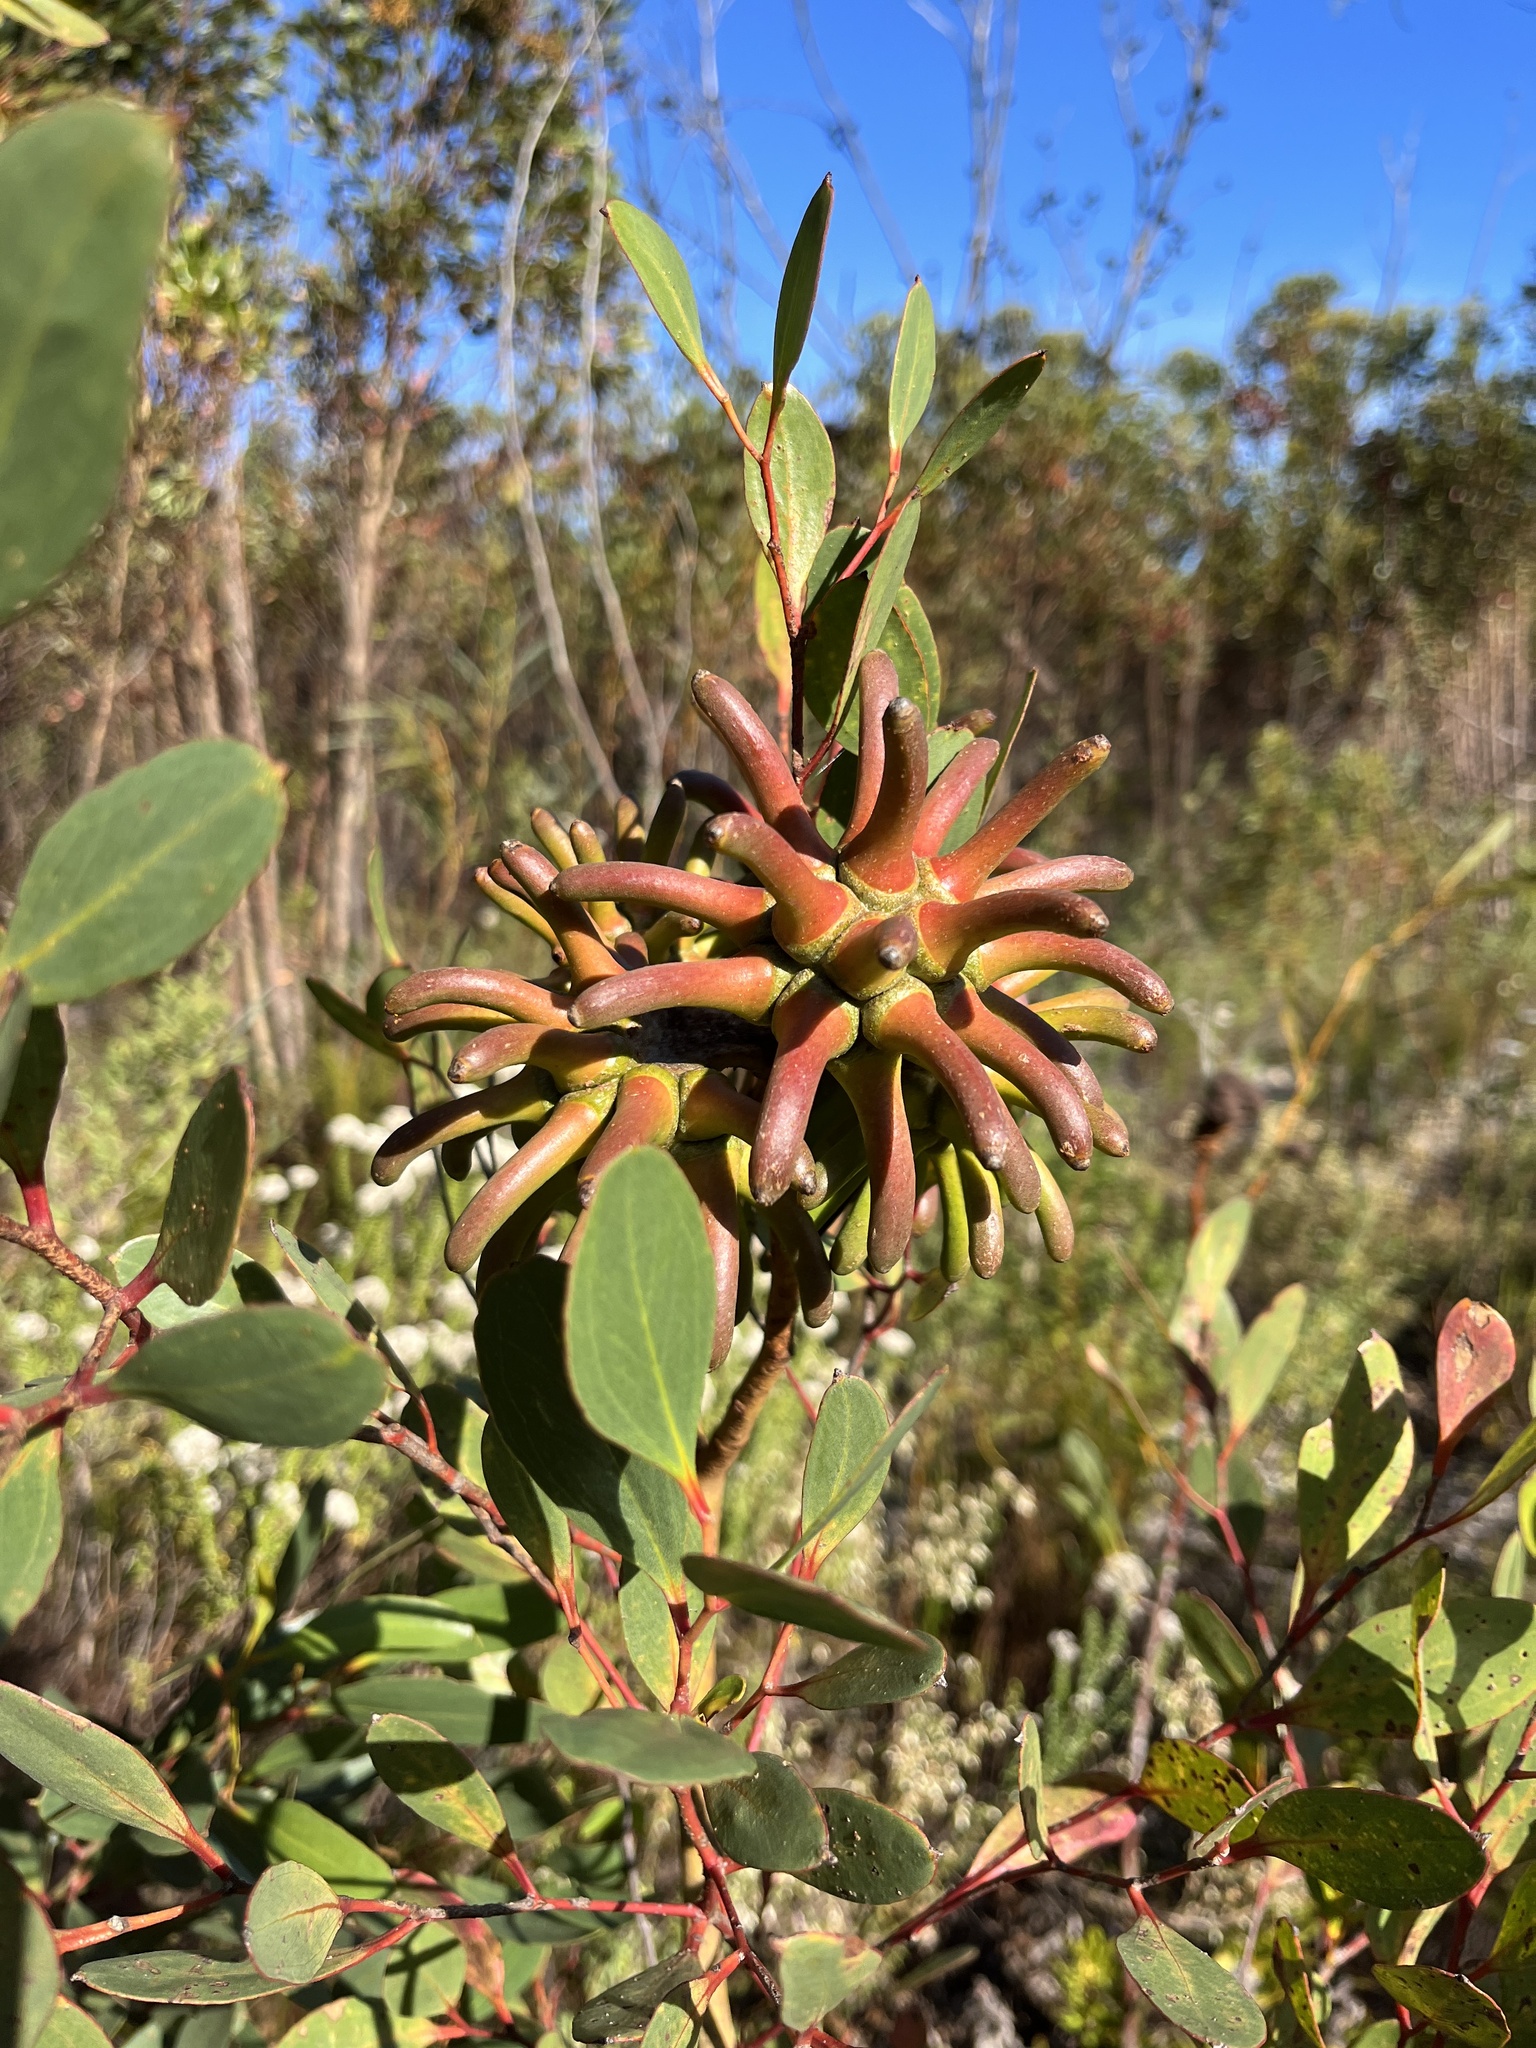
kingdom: Plantae
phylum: Tracheophyta
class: Magnoliopsida
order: Myrtales
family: Myrtaceae
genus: Eucalyptus
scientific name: Eucalyptus conferruminata
